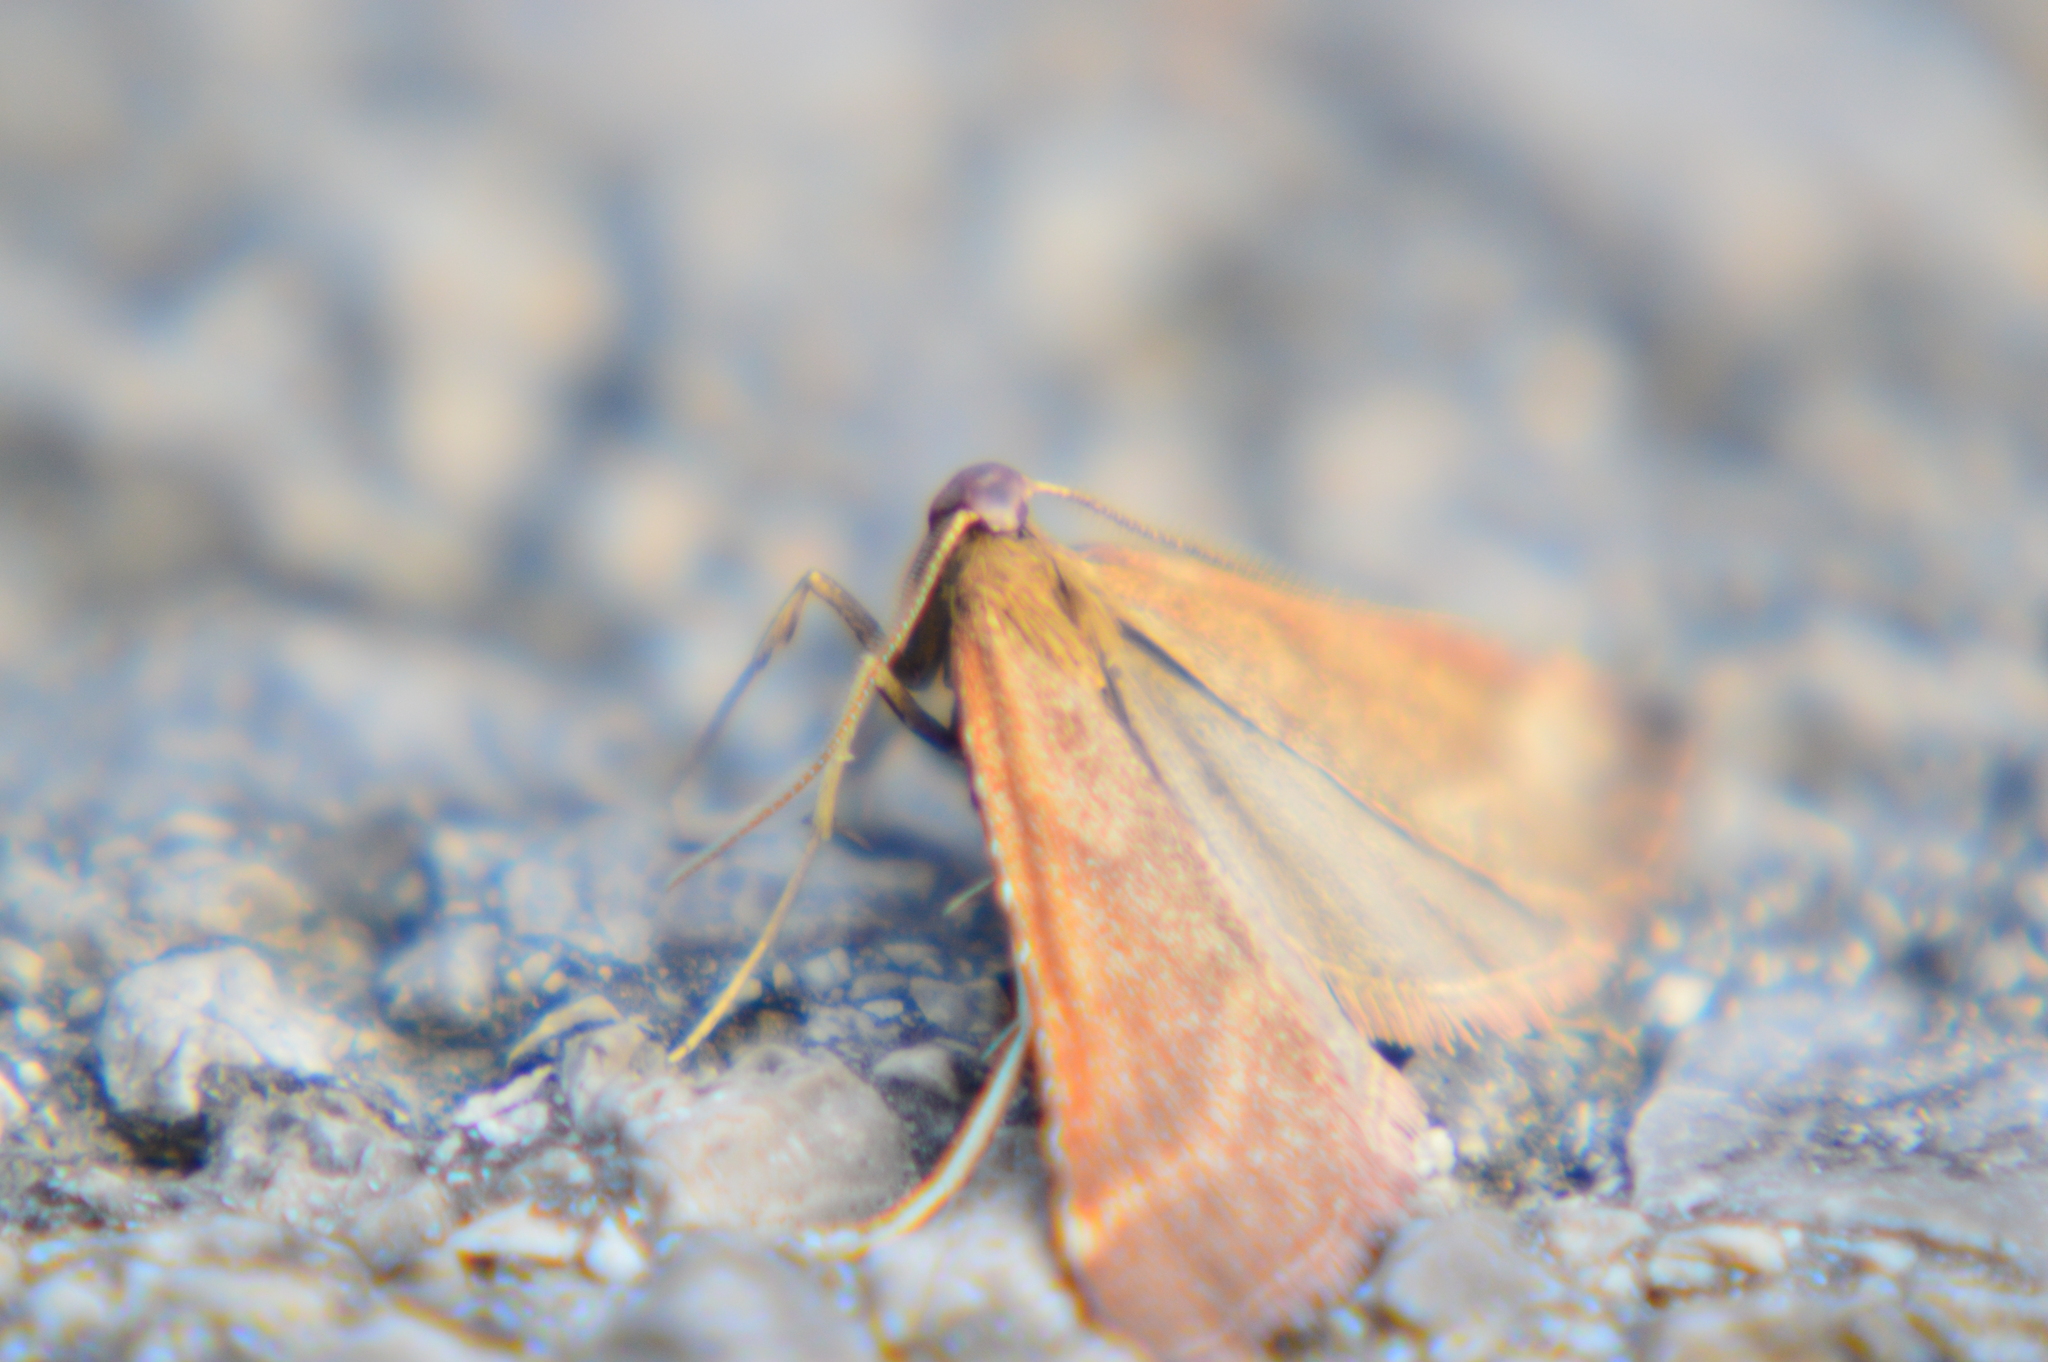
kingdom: Animalia
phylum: Arthropoda
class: Insecta
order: Lepidoptera
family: Pyralidae
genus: Synaphe
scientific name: Synaphe punctalis
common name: Long-legged tabby
